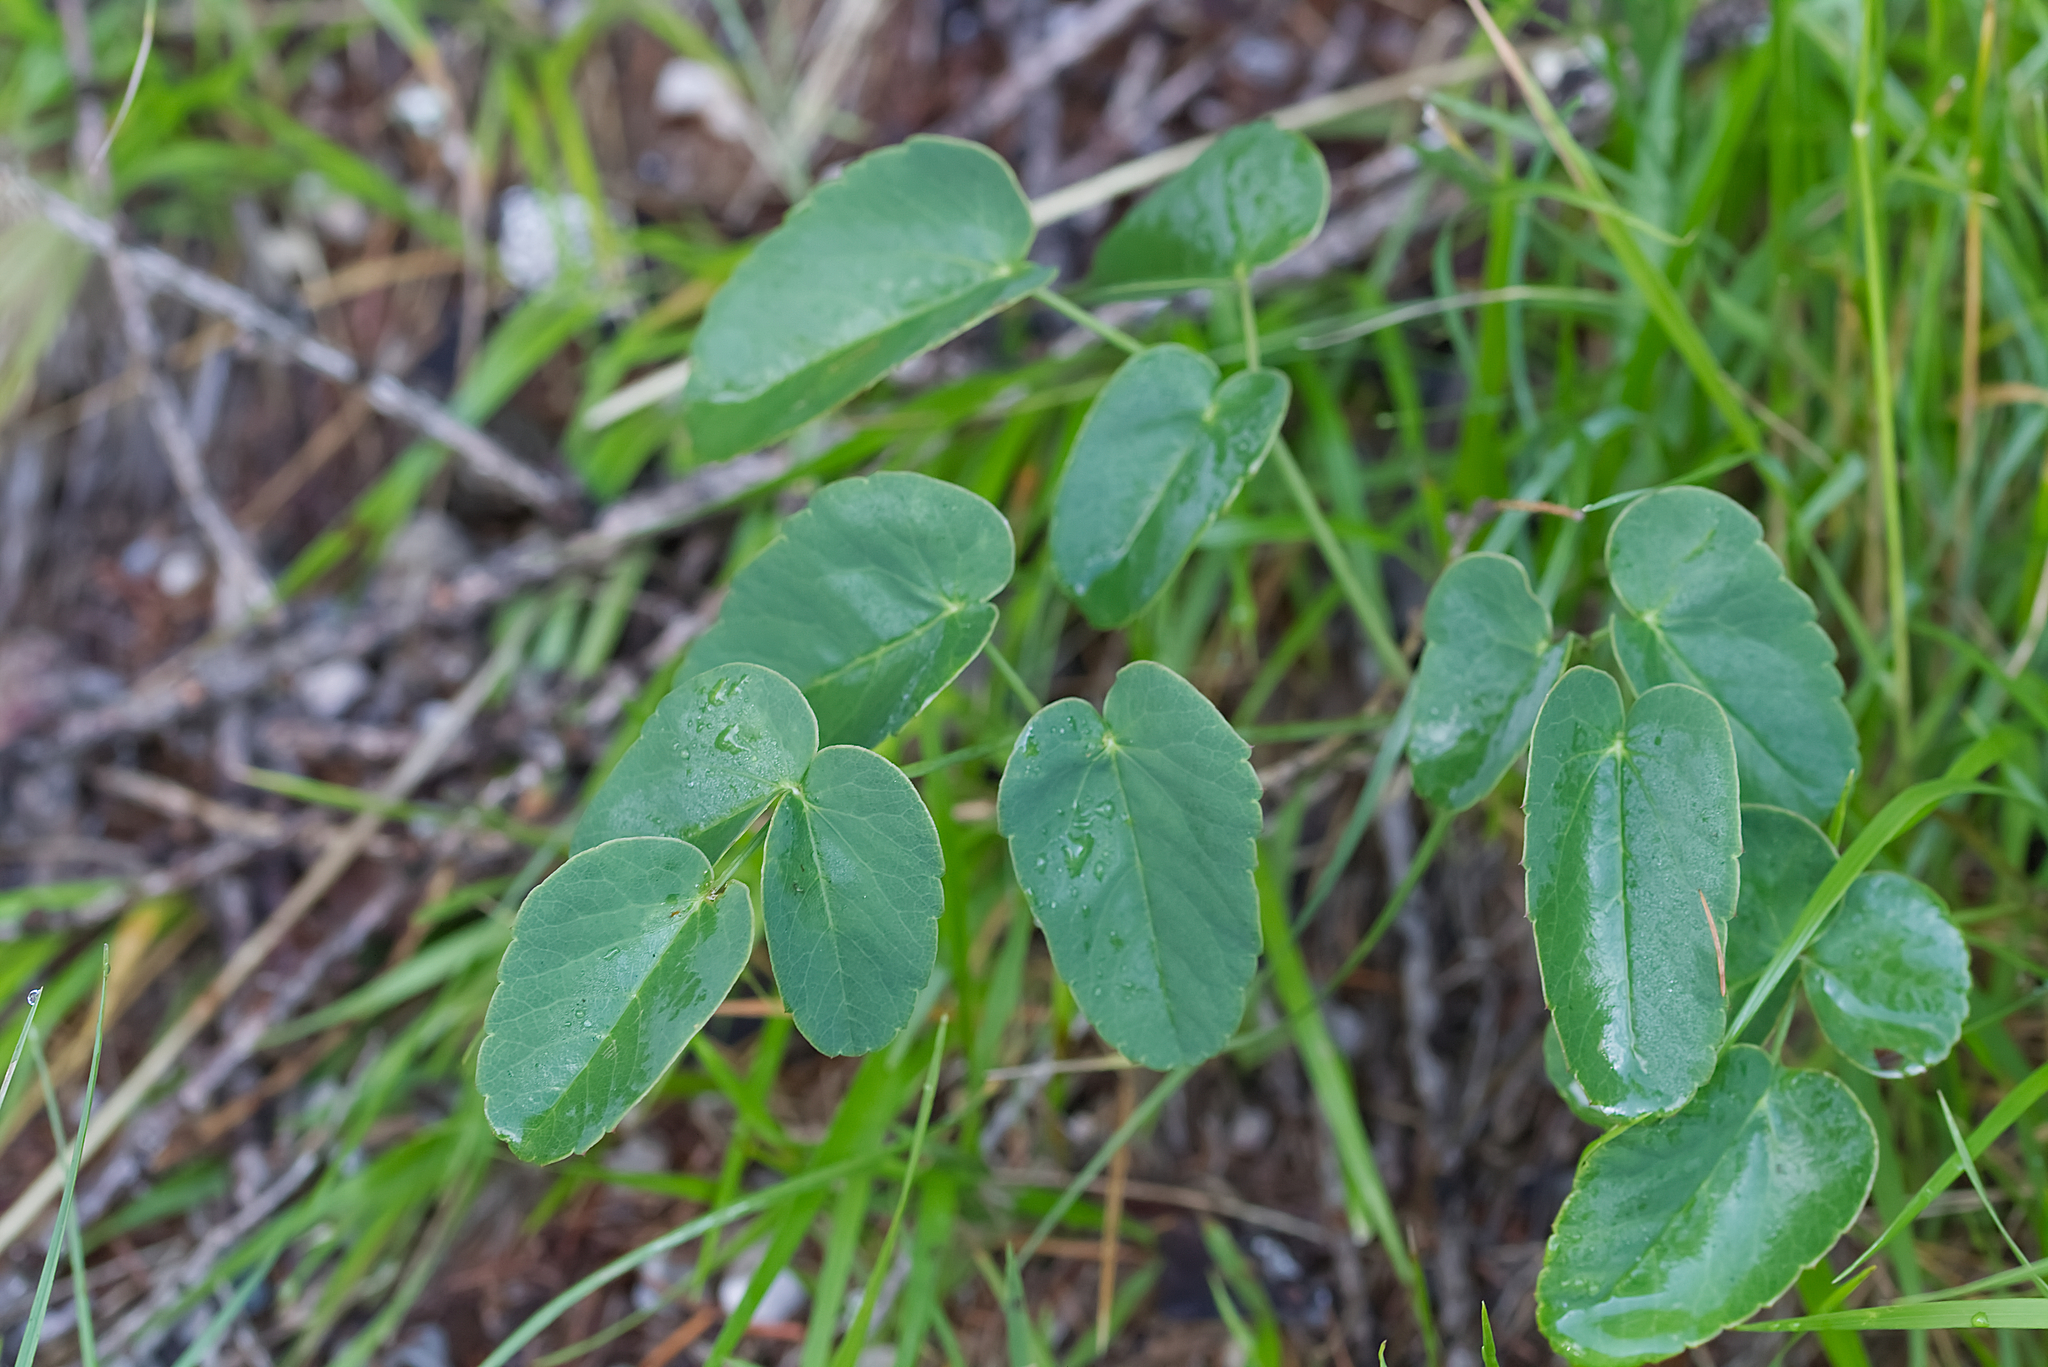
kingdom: Plantae
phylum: Tracheophyta
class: Magnoliopsida
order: Apiales
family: Apiaceae
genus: Laserpitium
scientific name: Laserpitium latifolium
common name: Broadleaf sermountain
